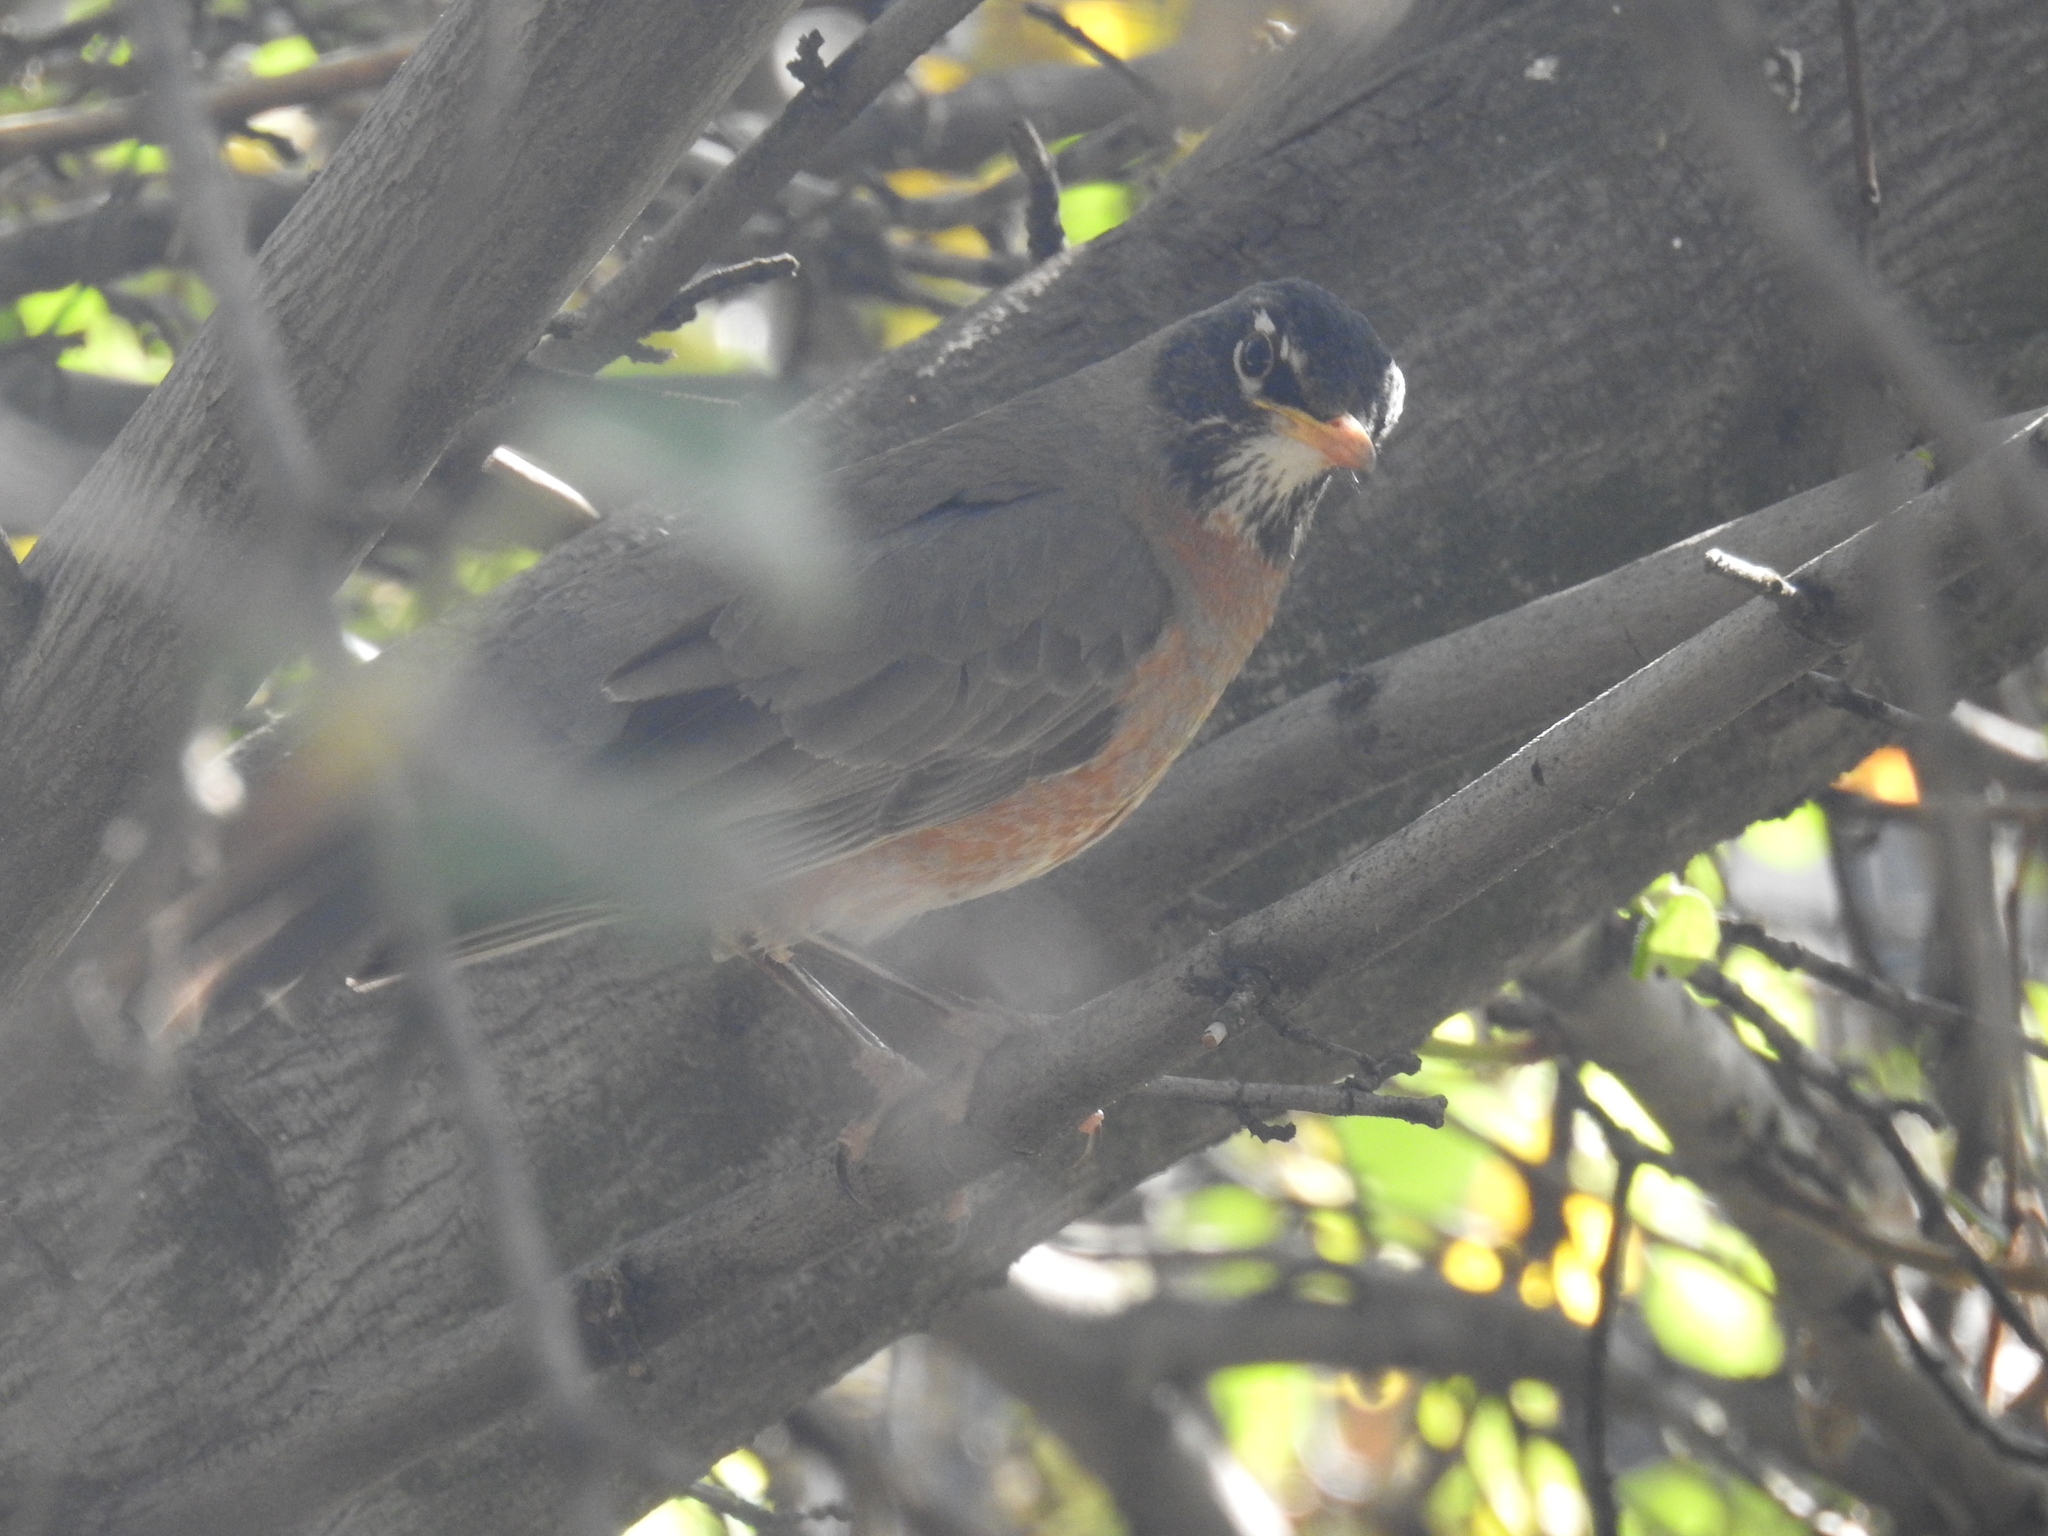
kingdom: Animalia
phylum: Chordata
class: Aves
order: Passeriformes
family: Turdidae
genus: Turdus
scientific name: Turdus migratorius
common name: American robin
